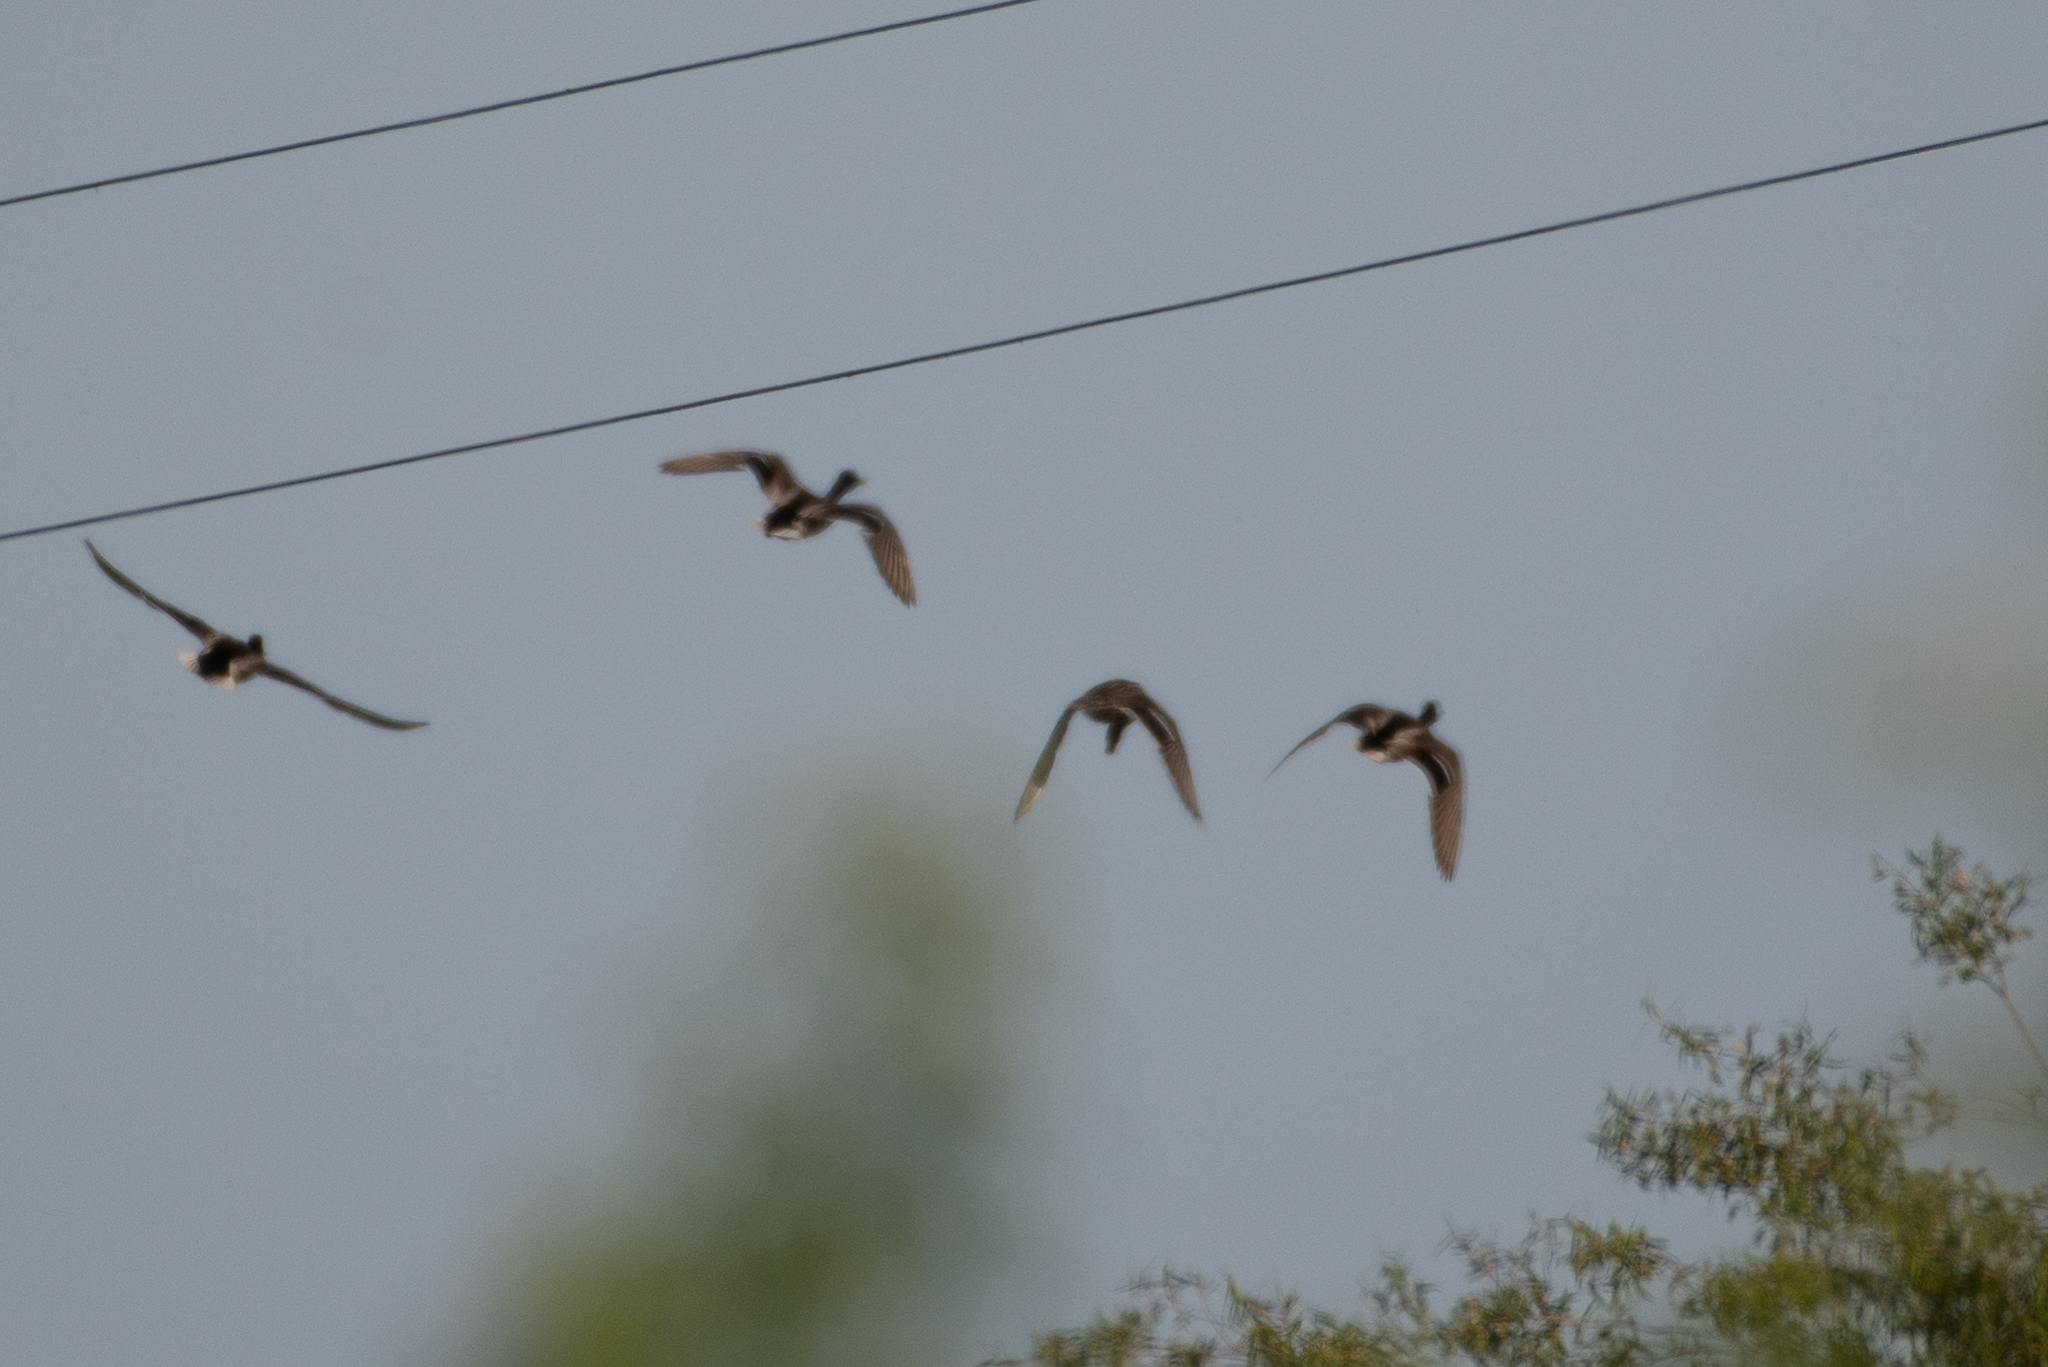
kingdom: Animalia
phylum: Chordata
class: Aves
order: Anseriformes
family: Anatidae
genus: Anas
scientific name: Anas platyrhynchos
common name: Mallard
